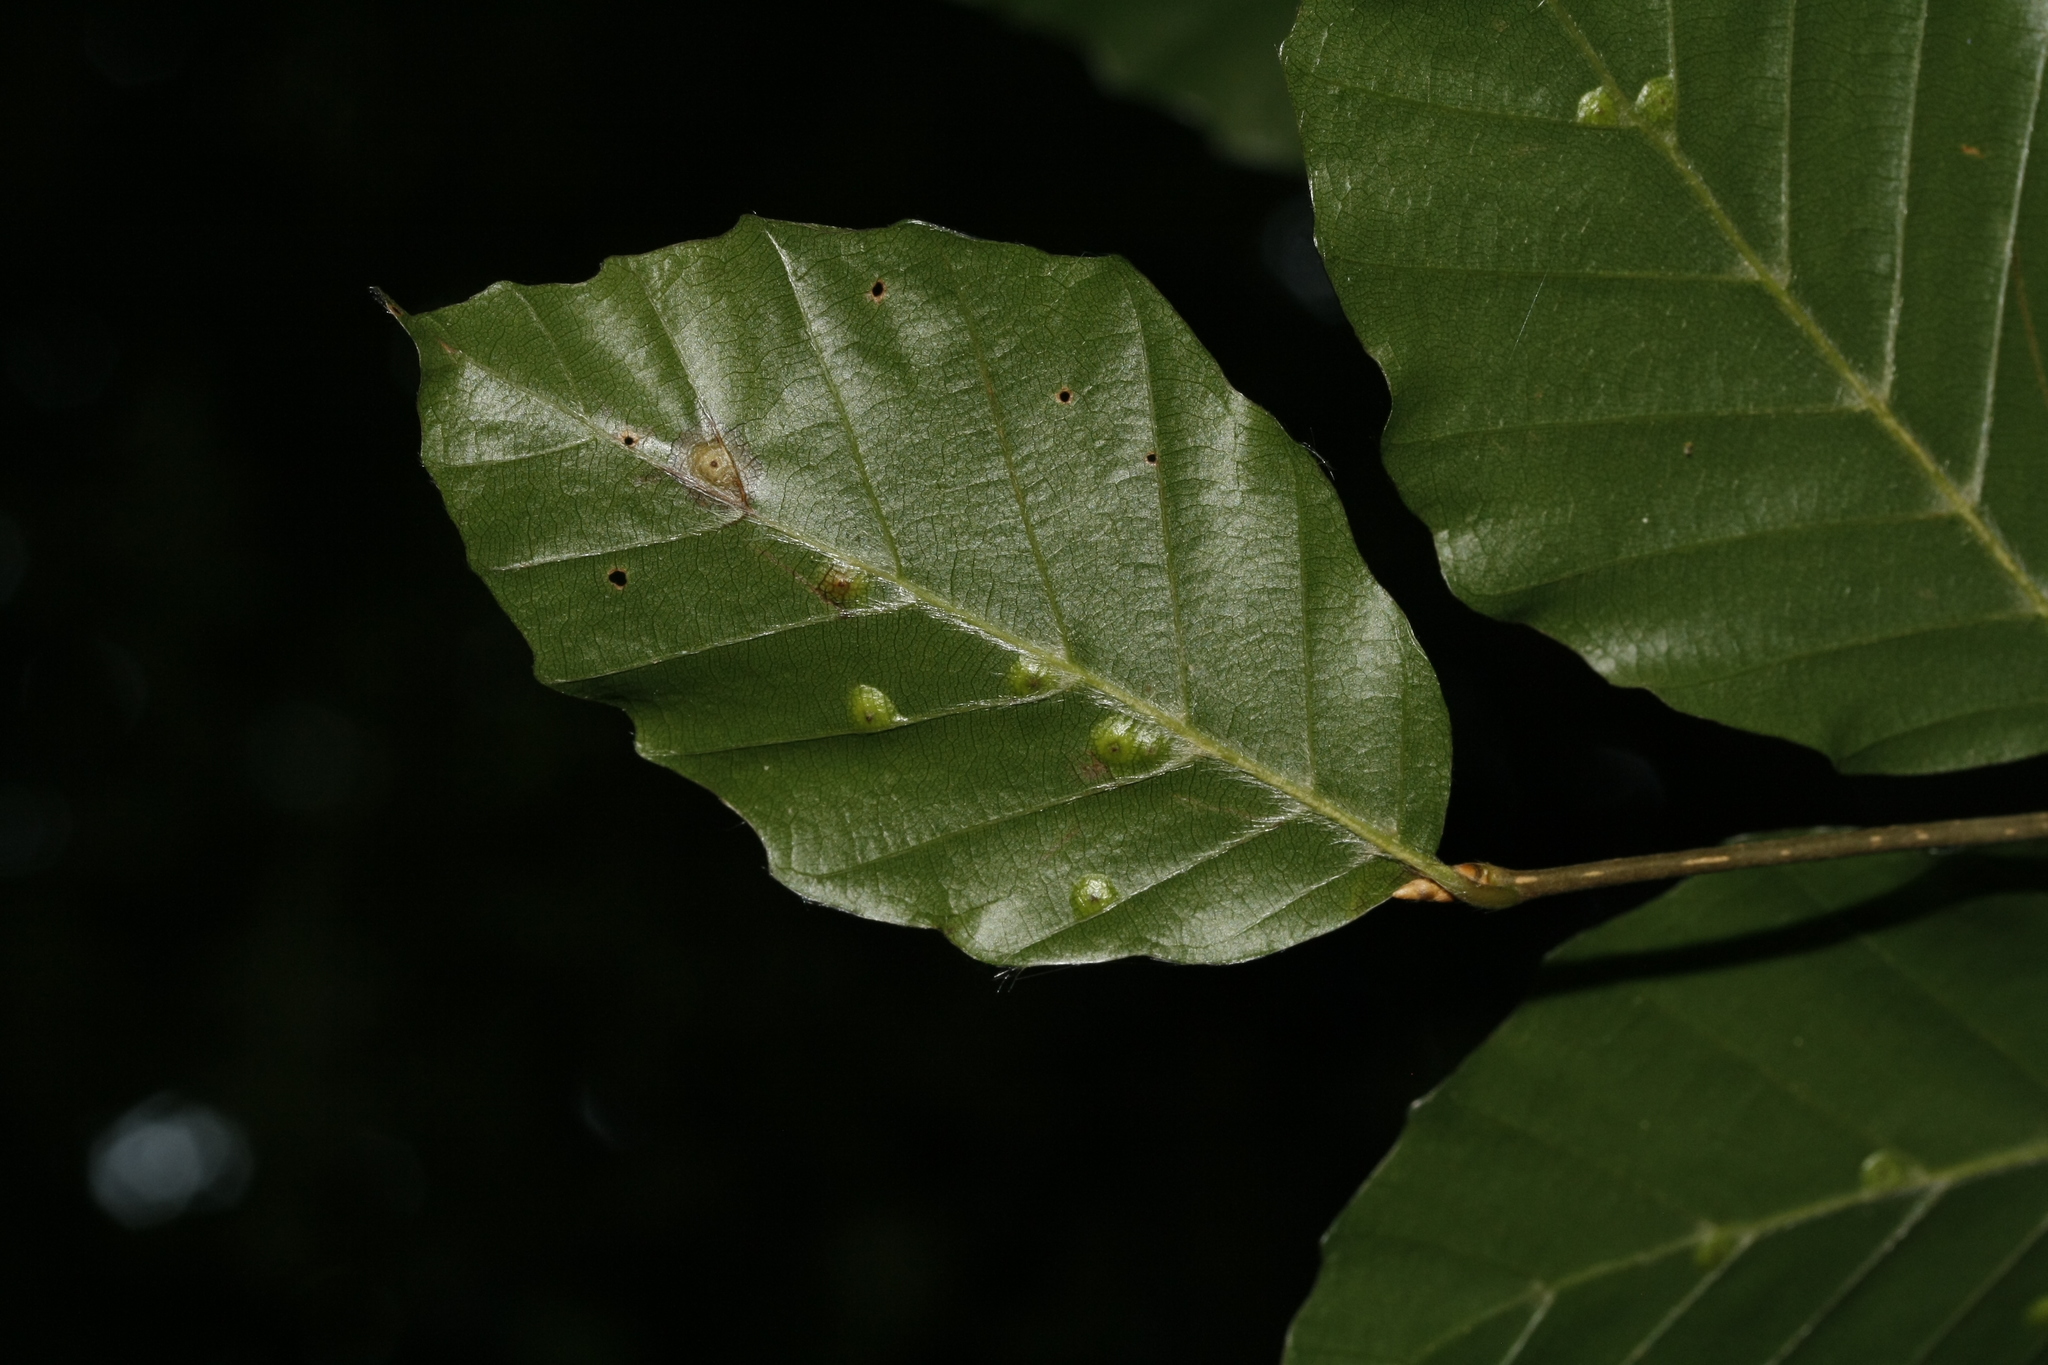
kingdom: Animalia
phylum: Arthropoda
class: Insecta
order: Diptera
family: Cecidomyiidae
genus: Hartigiola
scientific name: Hartigiola annulipes
